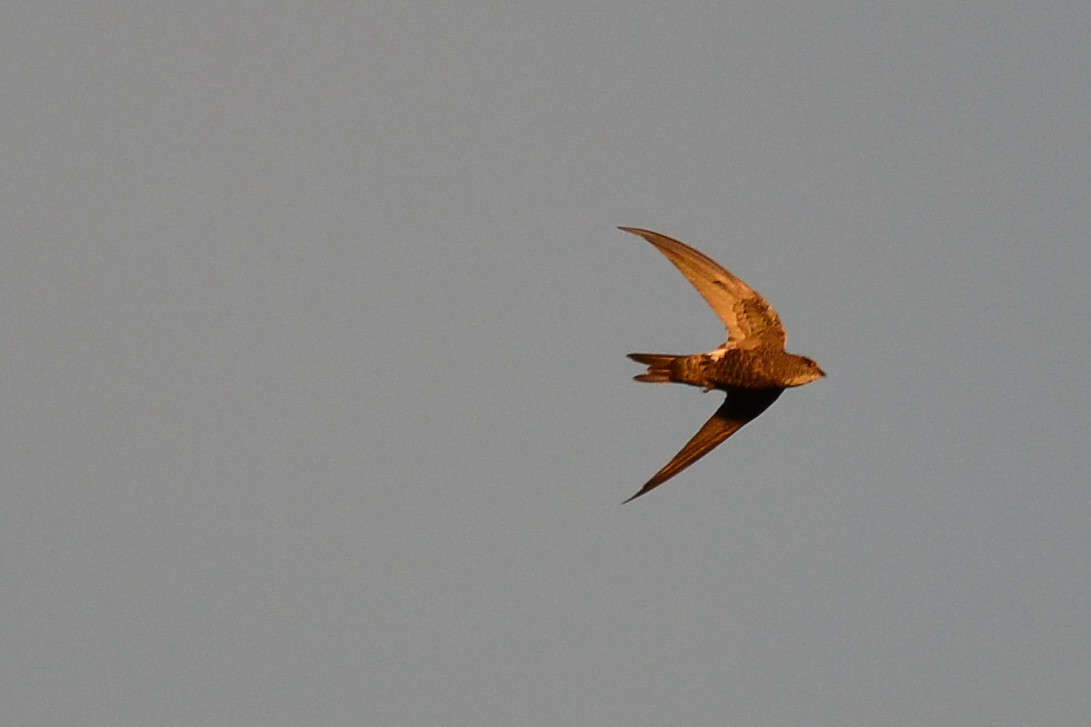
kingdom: Animalia
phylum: Chordata
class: Aves
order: Apodiformes
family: Apodidae
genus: Apus
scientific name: Apus pacificus
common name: Pacific swift
